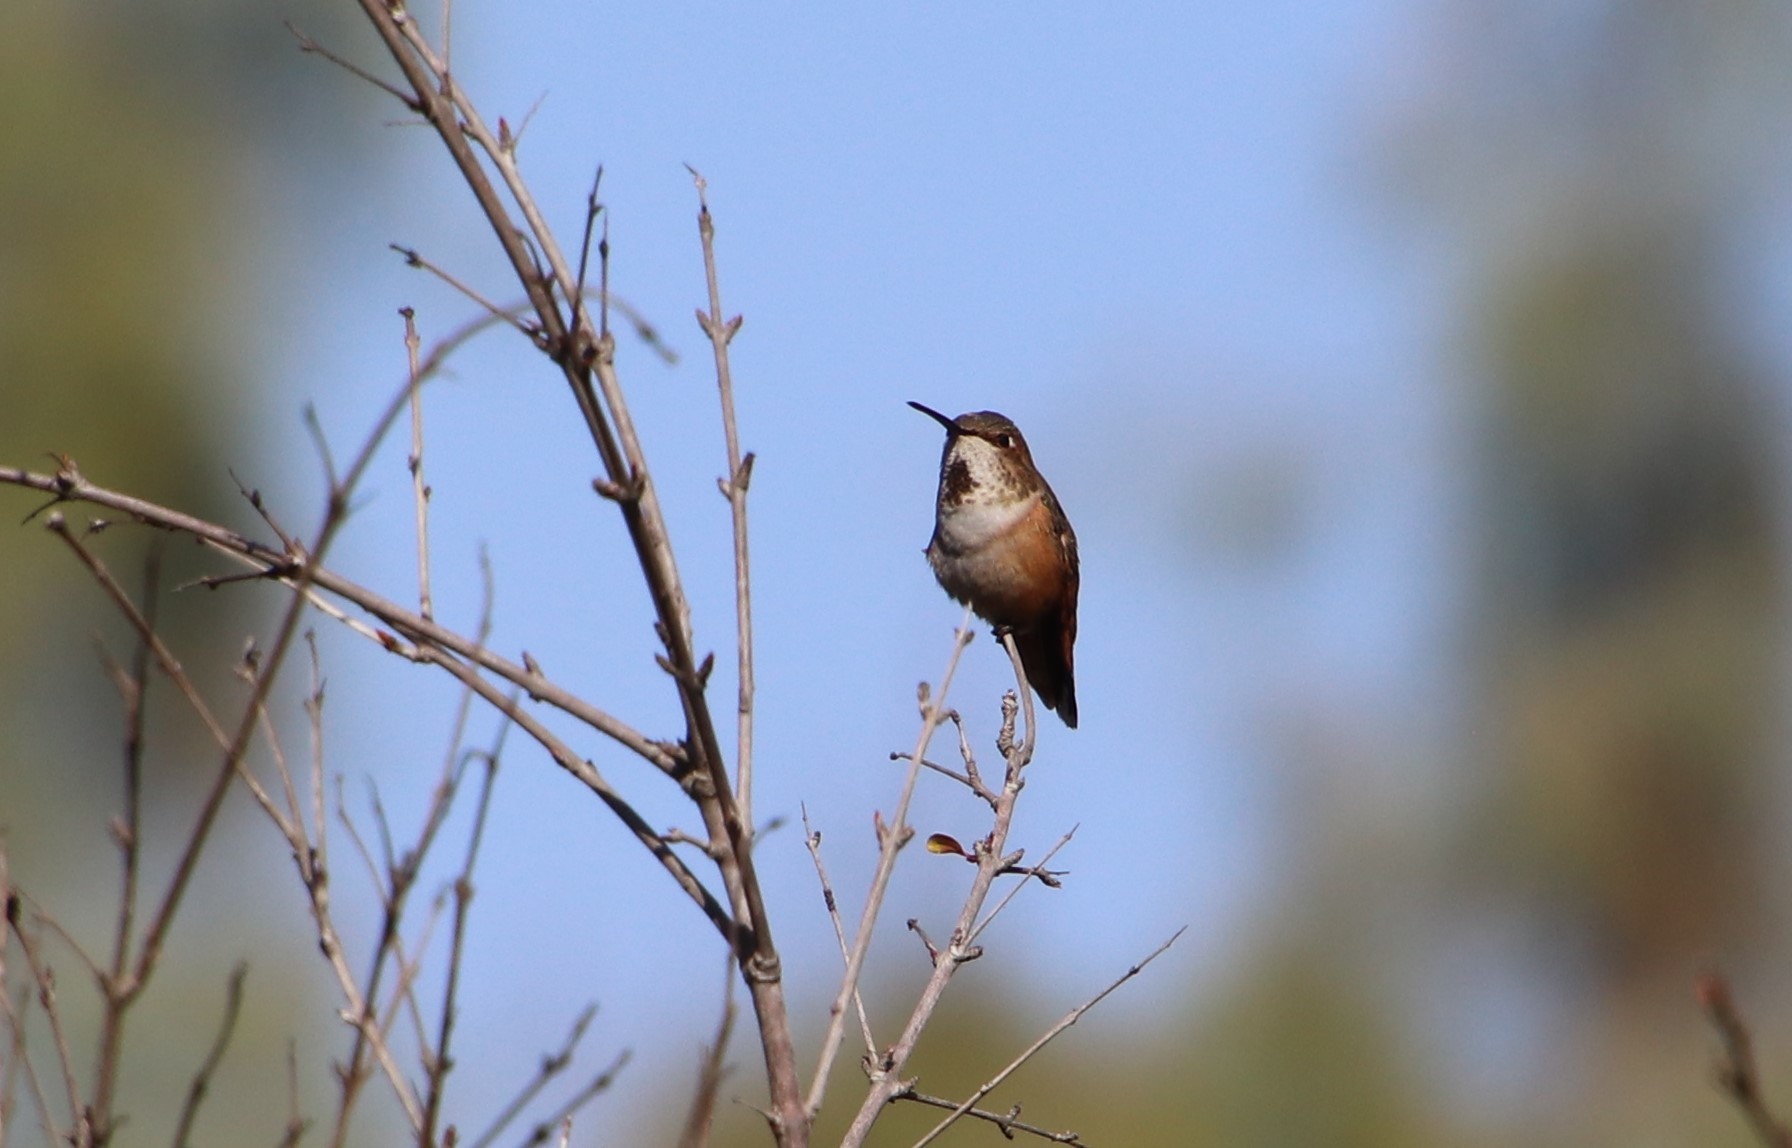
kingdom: Animalia
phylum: Chordata
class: Aves
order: Apodiformes
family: Trochilidae
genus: Selasphorus
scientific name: Selasphorus sasin
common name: Allen's hummingbird
